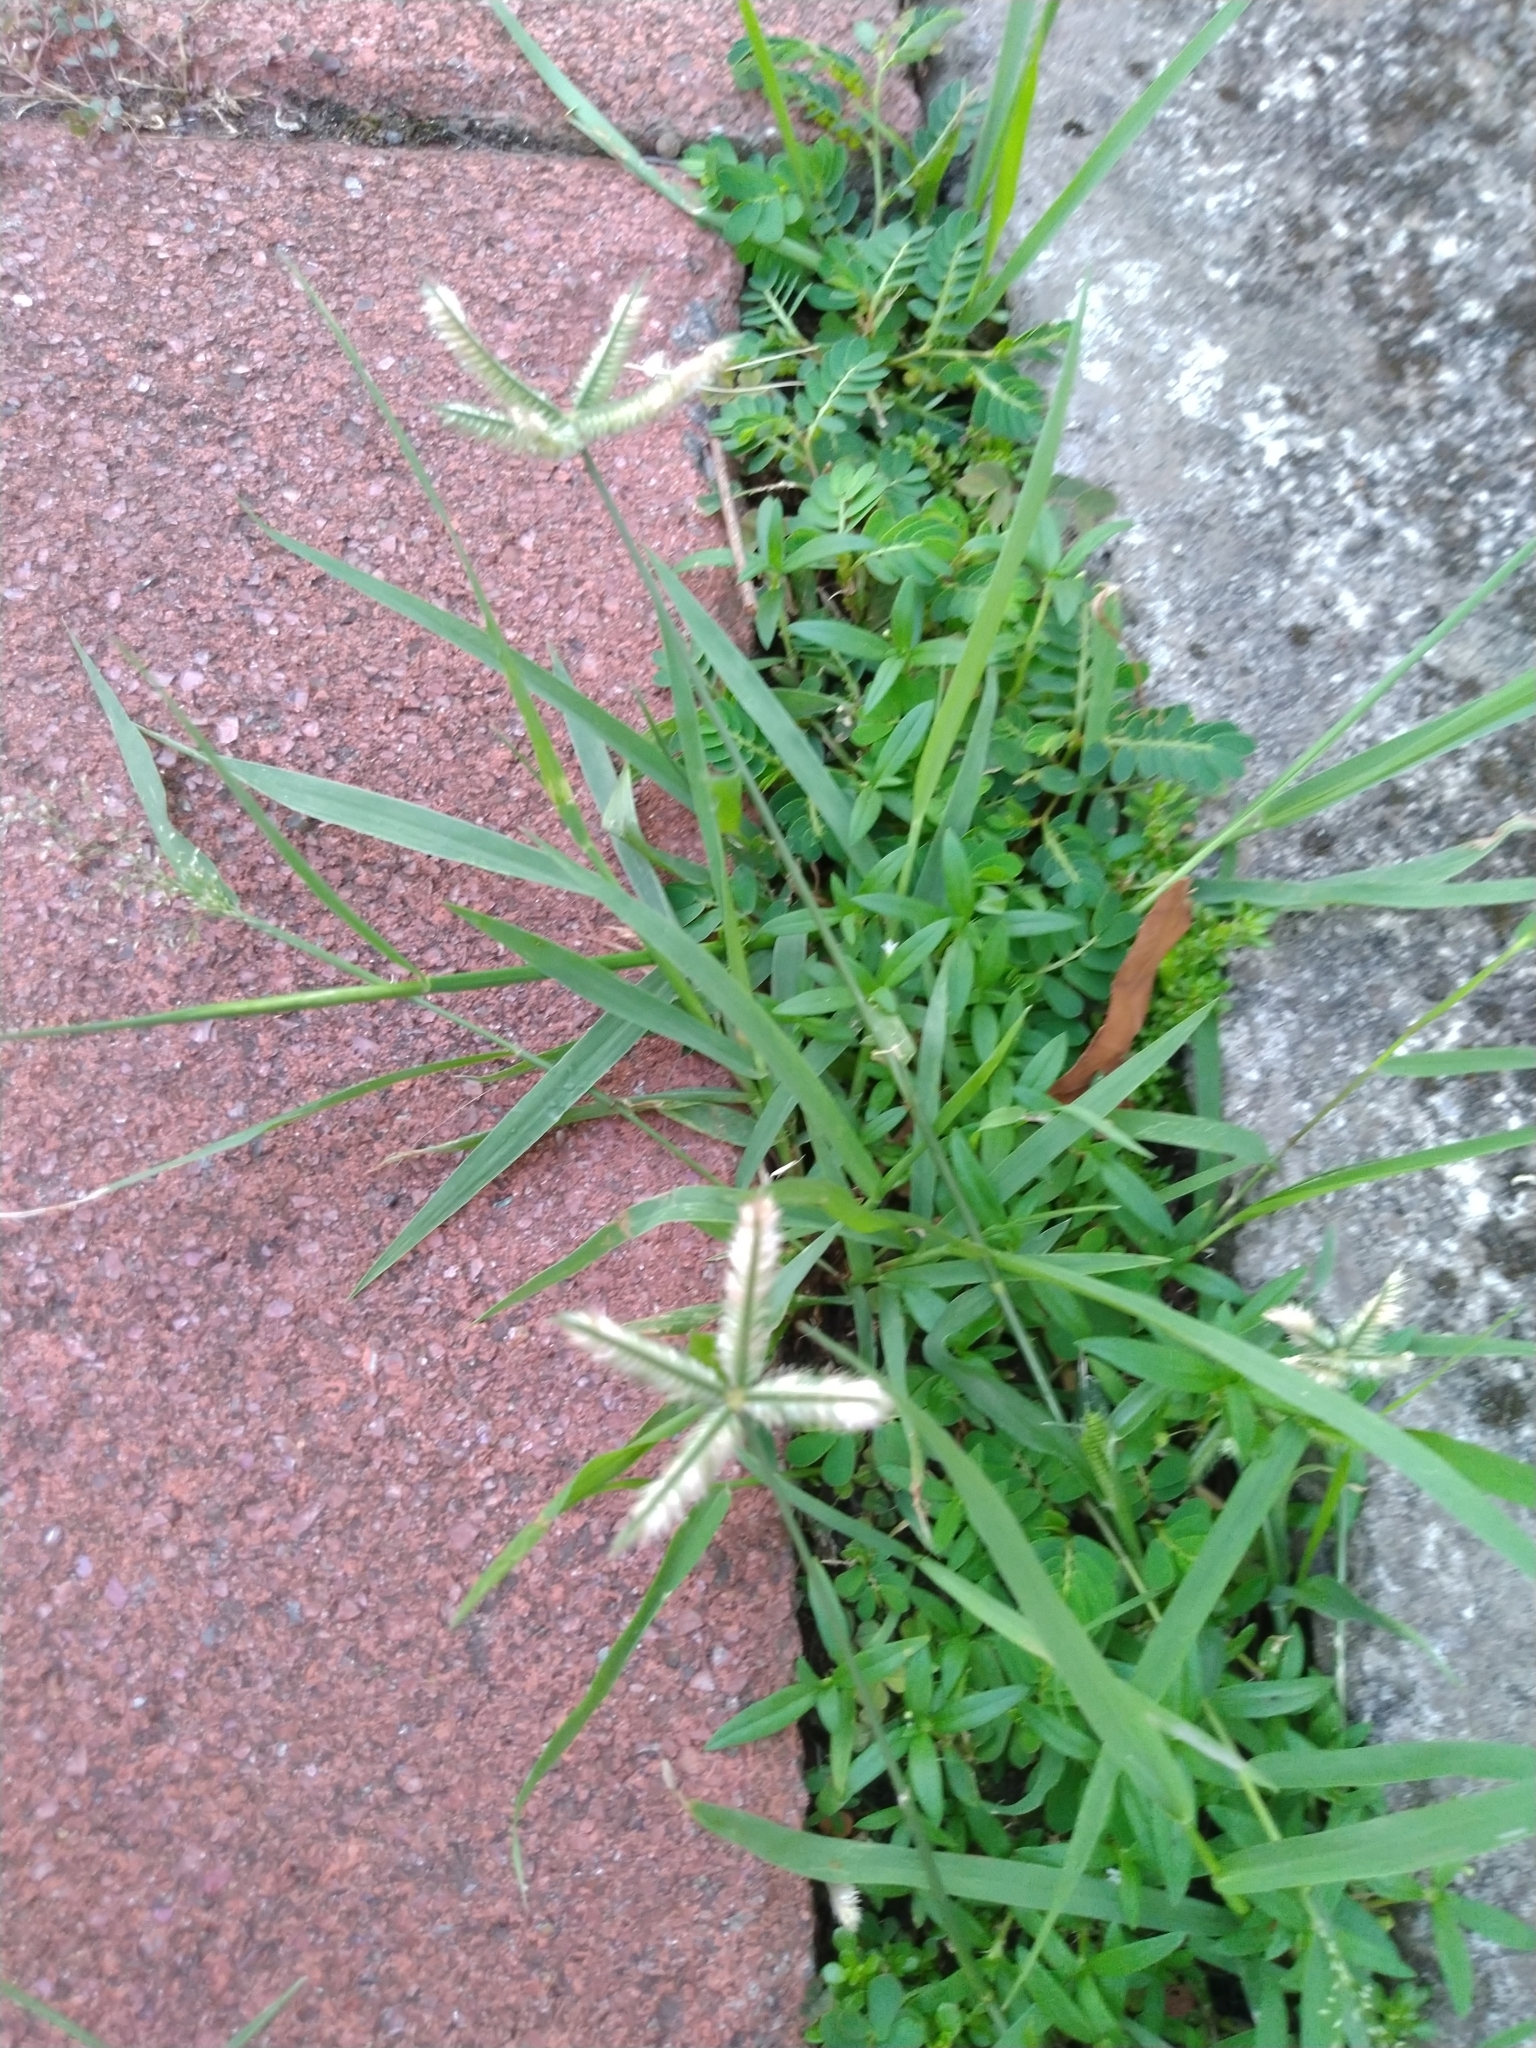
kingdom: Plantae
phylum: Tracheophyta
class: Liliopsida
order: Poales
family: Poaceae
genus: Dactyloctenium
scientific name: Dactyloctenium aegyptium
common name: Egyptian grass
